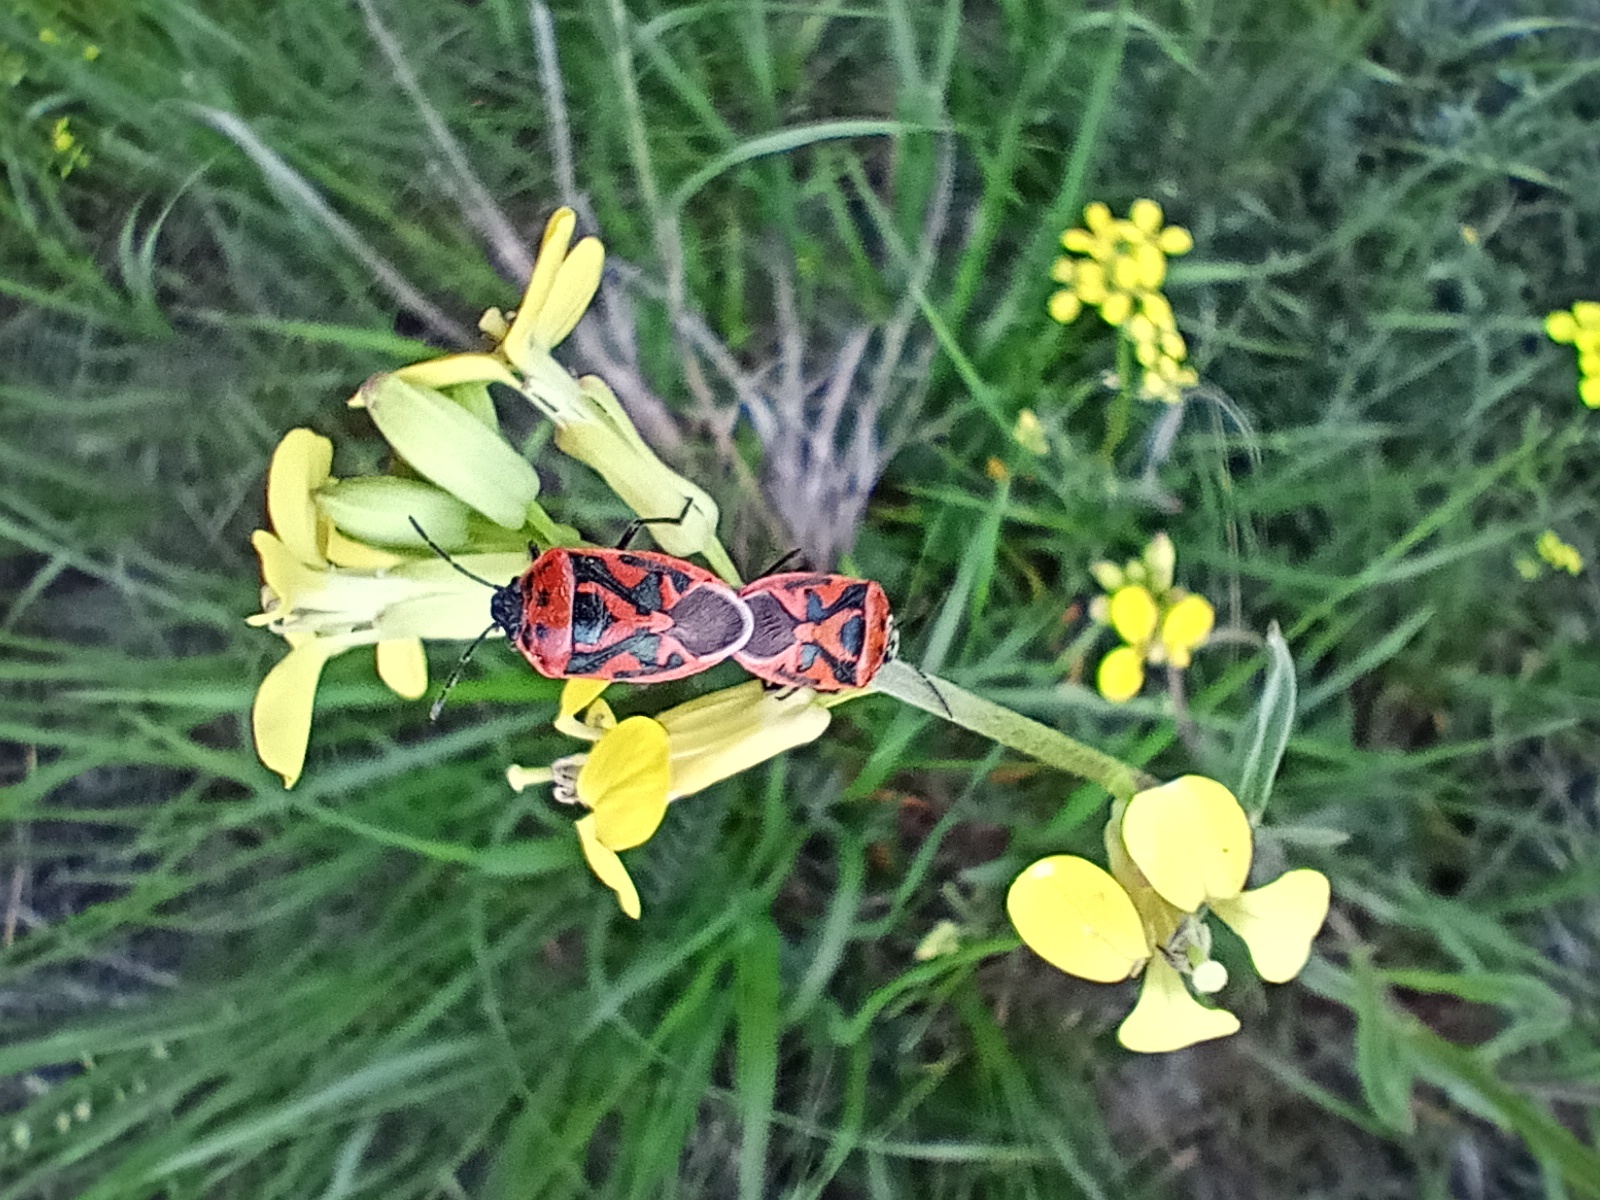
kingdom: Animalia
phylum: Arthropoda
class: Insecta
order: Hemiptera
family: Pentatomidae
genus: Eurydema
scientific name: Eurydema ornata
